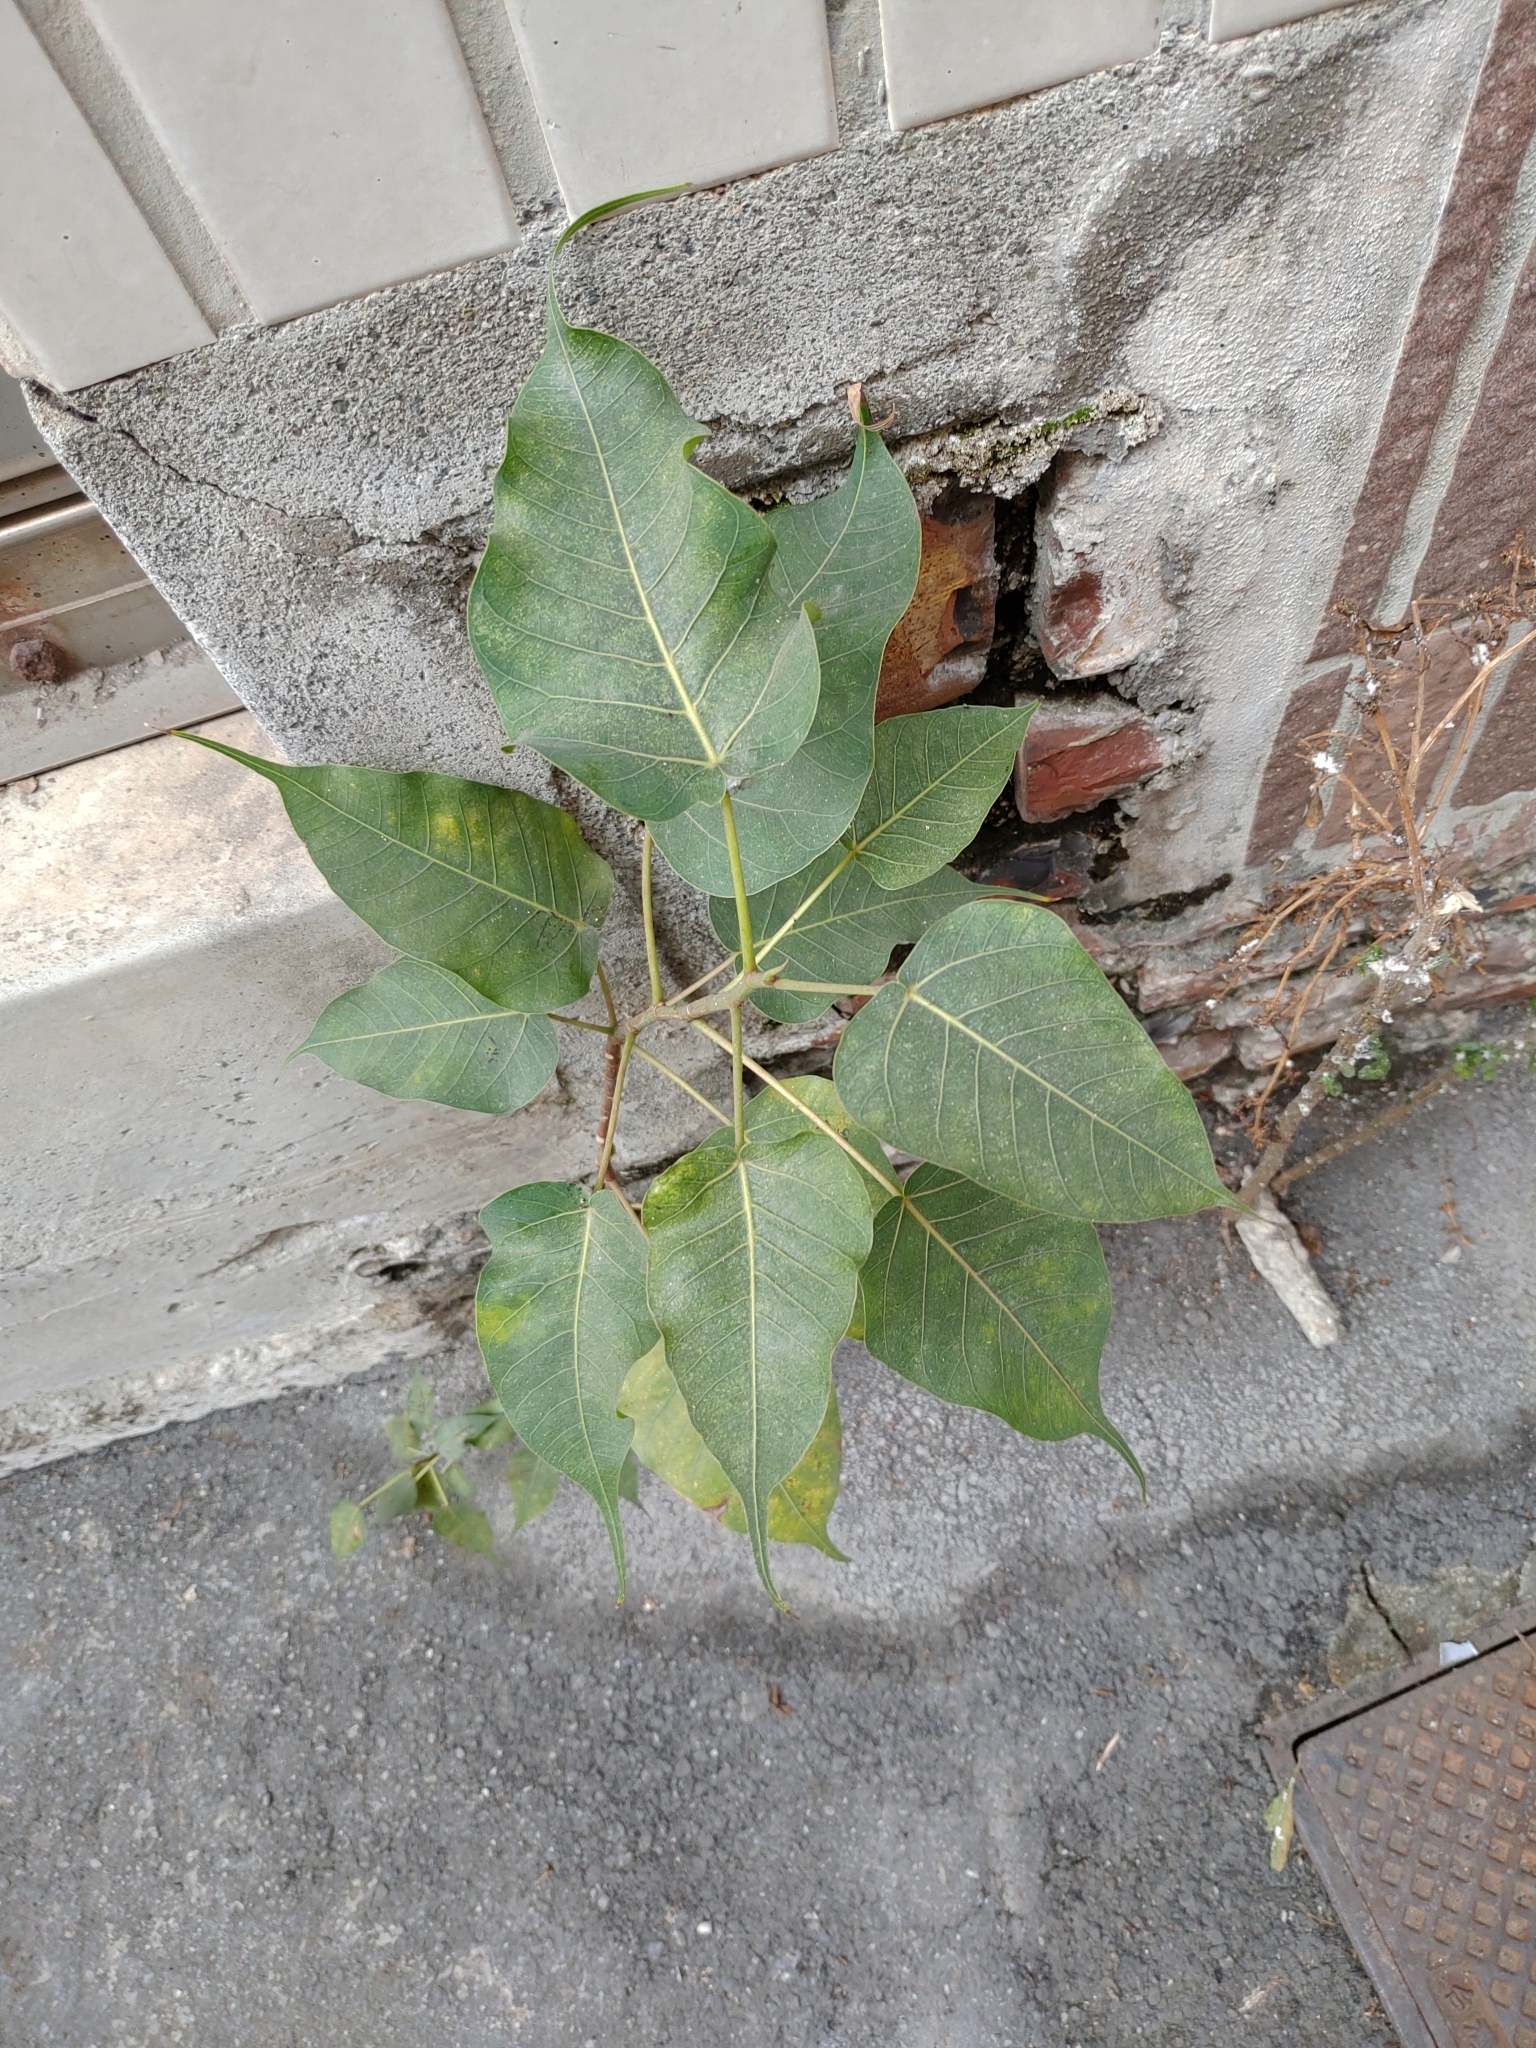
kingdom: Plantae
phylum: Tracheophyta
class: Magnoliopsida
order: Rosales
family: Moraceae
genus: Ficus
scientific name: Ficus religiosa
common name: Bodhi tree
